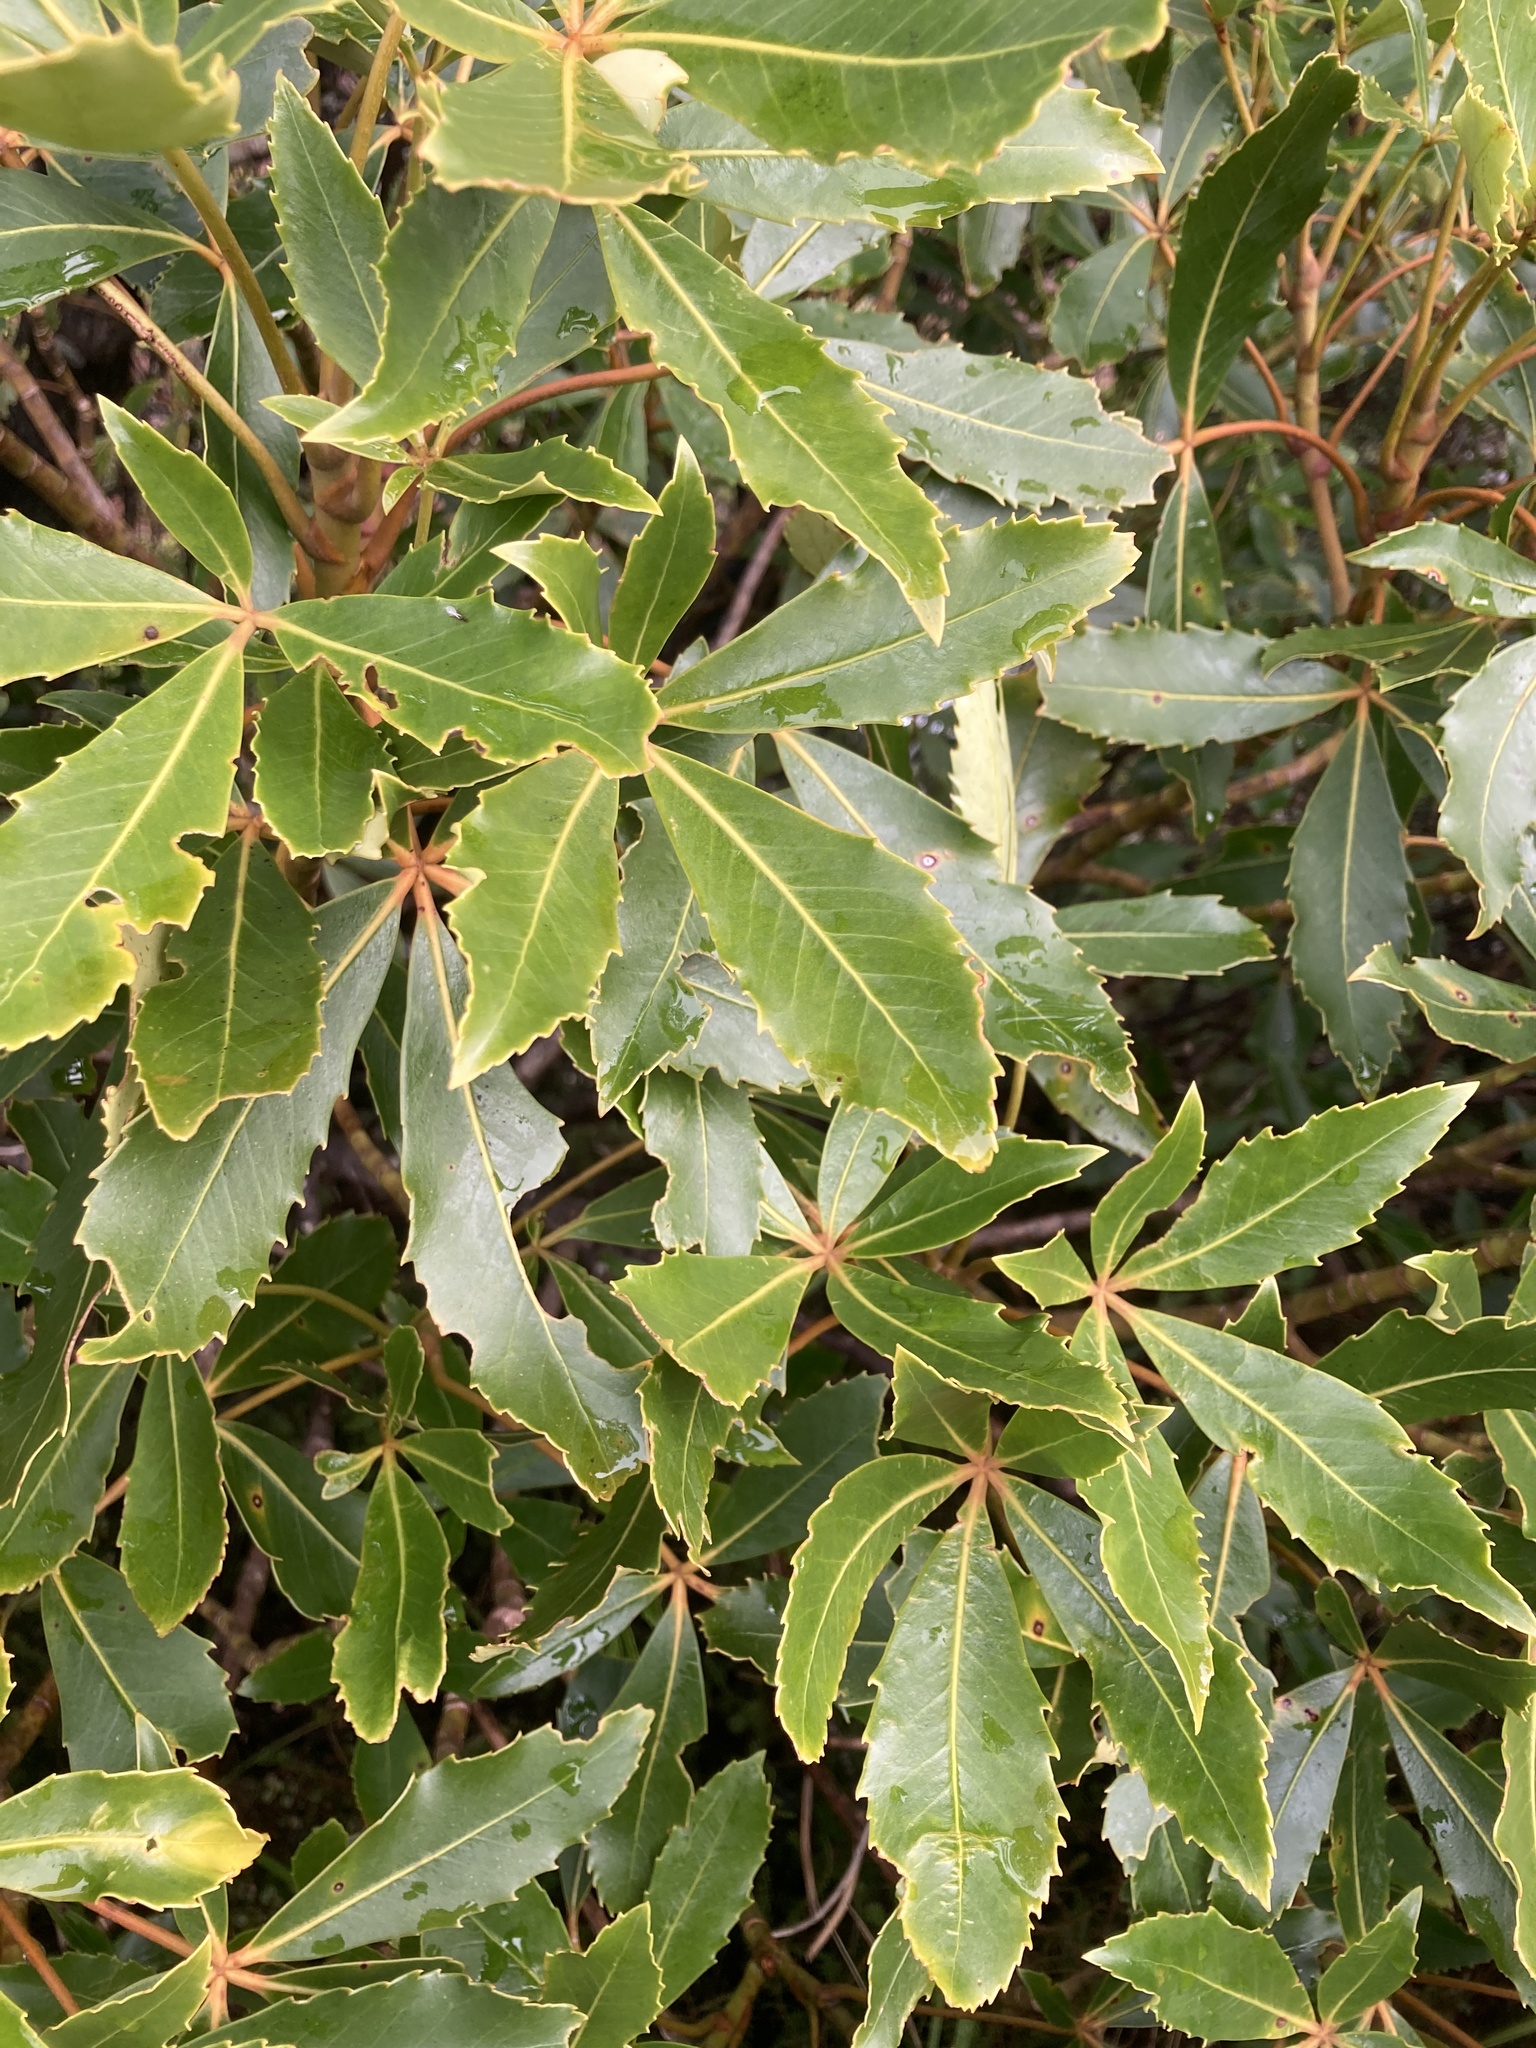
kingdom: Plantae
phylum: Tracheophyta
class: Magnoliopsida
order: Apiales
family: Araliaceae
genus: Neopanax
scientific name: Neopanax colensoi
